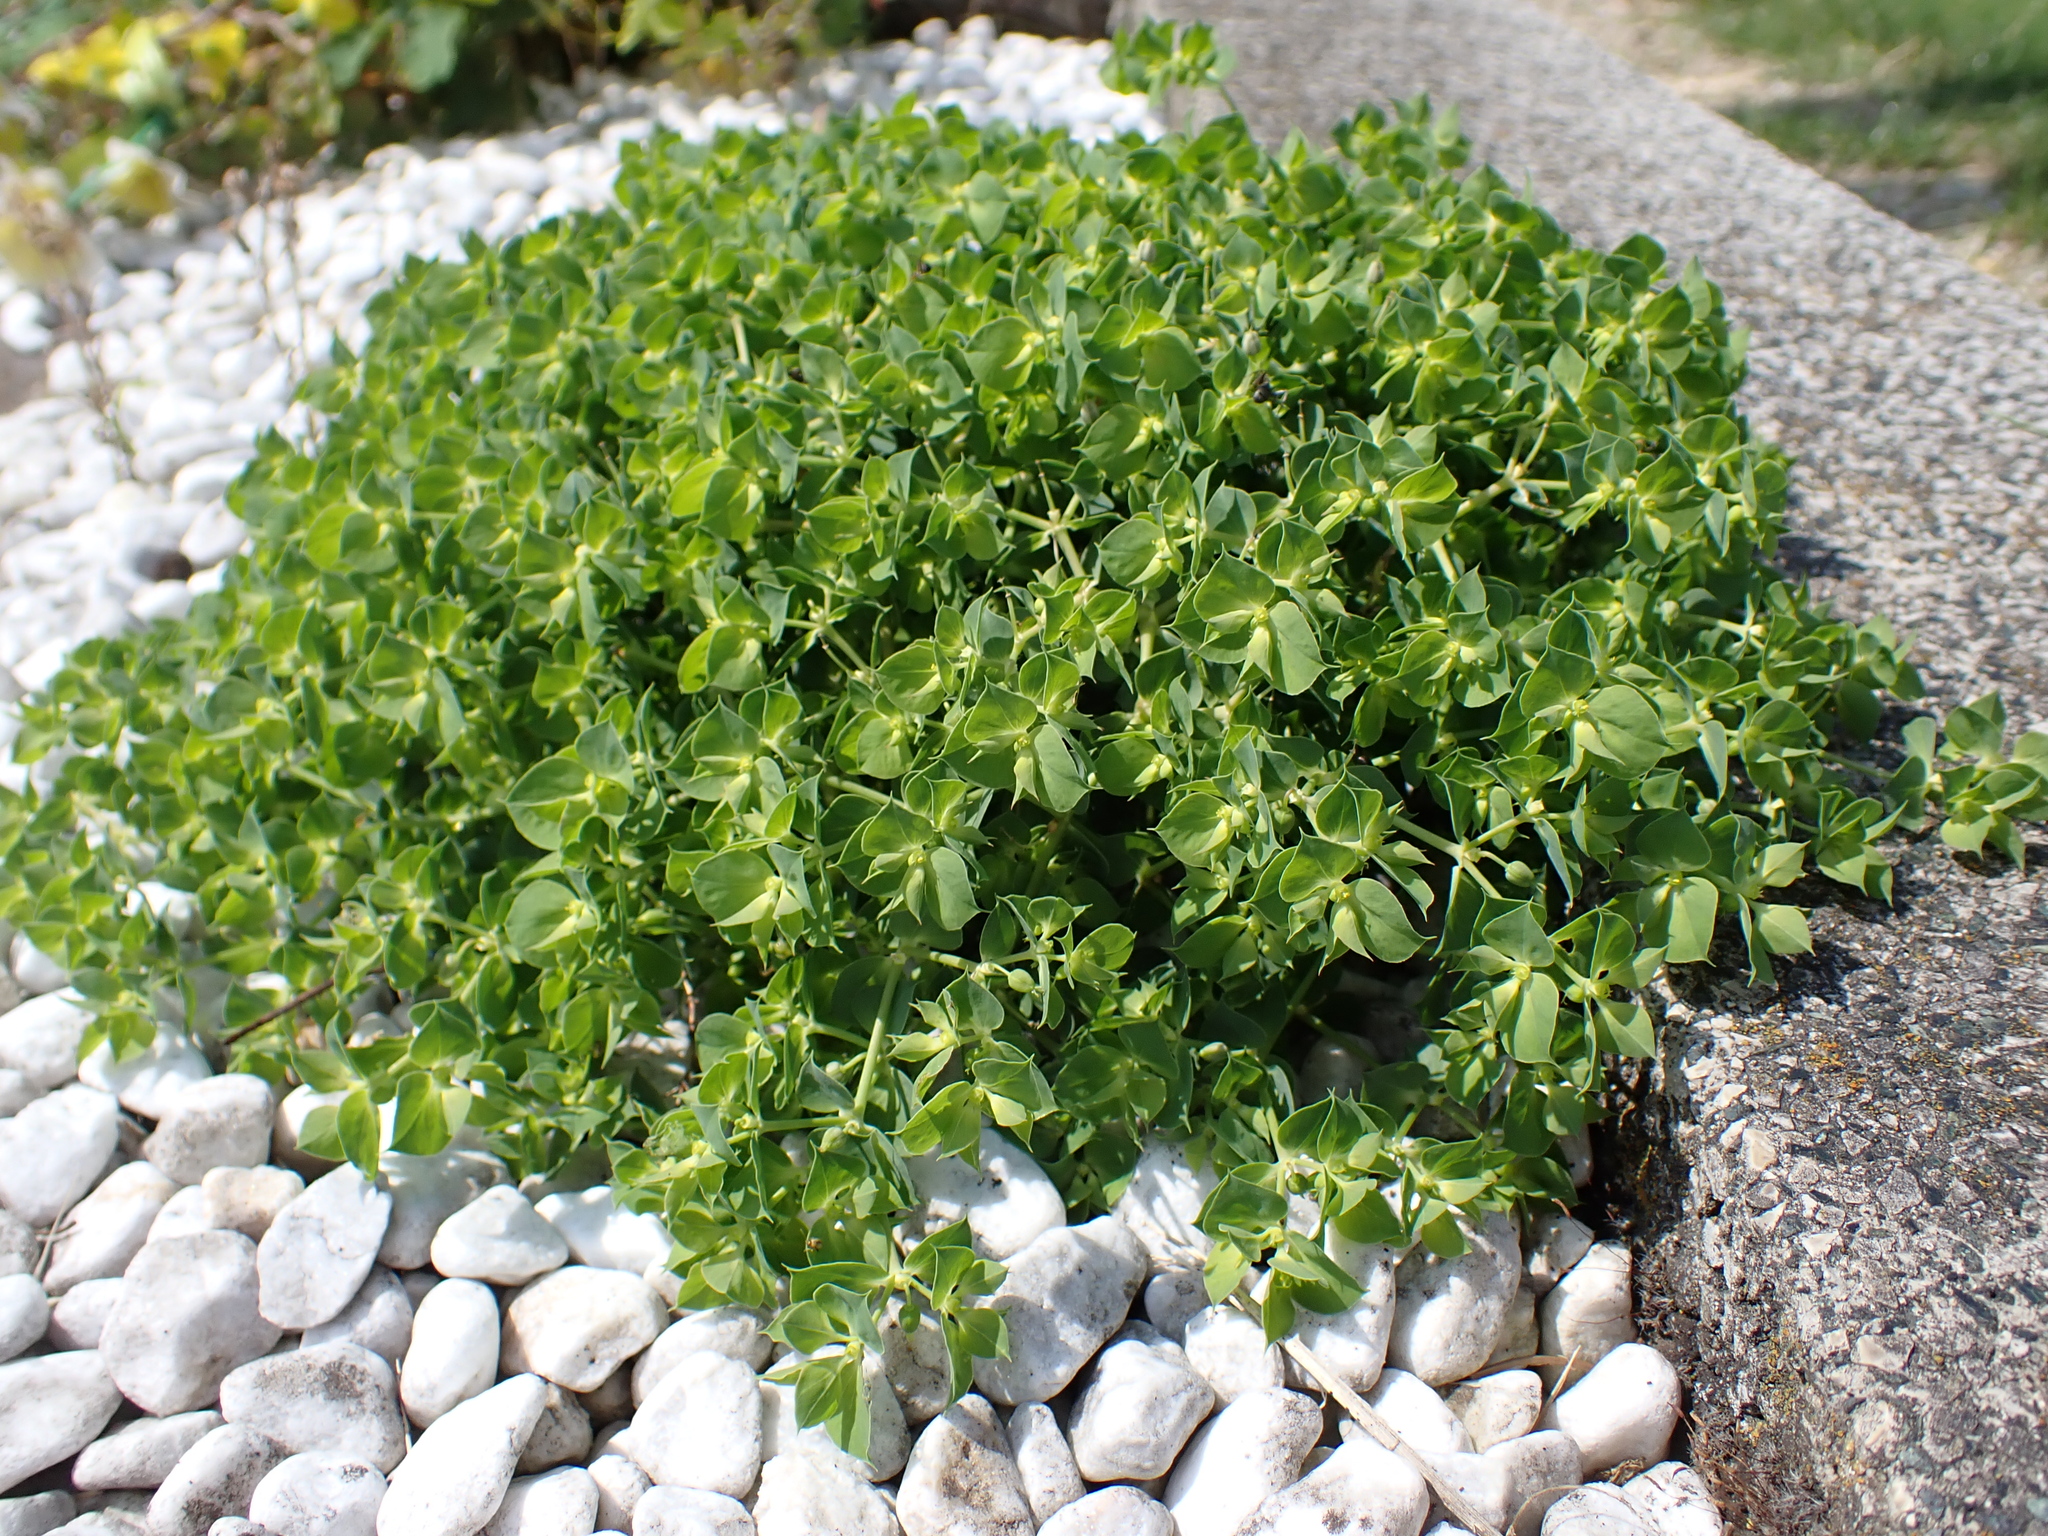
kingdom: Plantae
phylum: Tracheophyta
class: Magnoliopsida
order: Malpighiales
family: Euphorbiaceae
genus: Euphorbia
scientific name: Euphorbia falcata
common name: Sickle spurge
